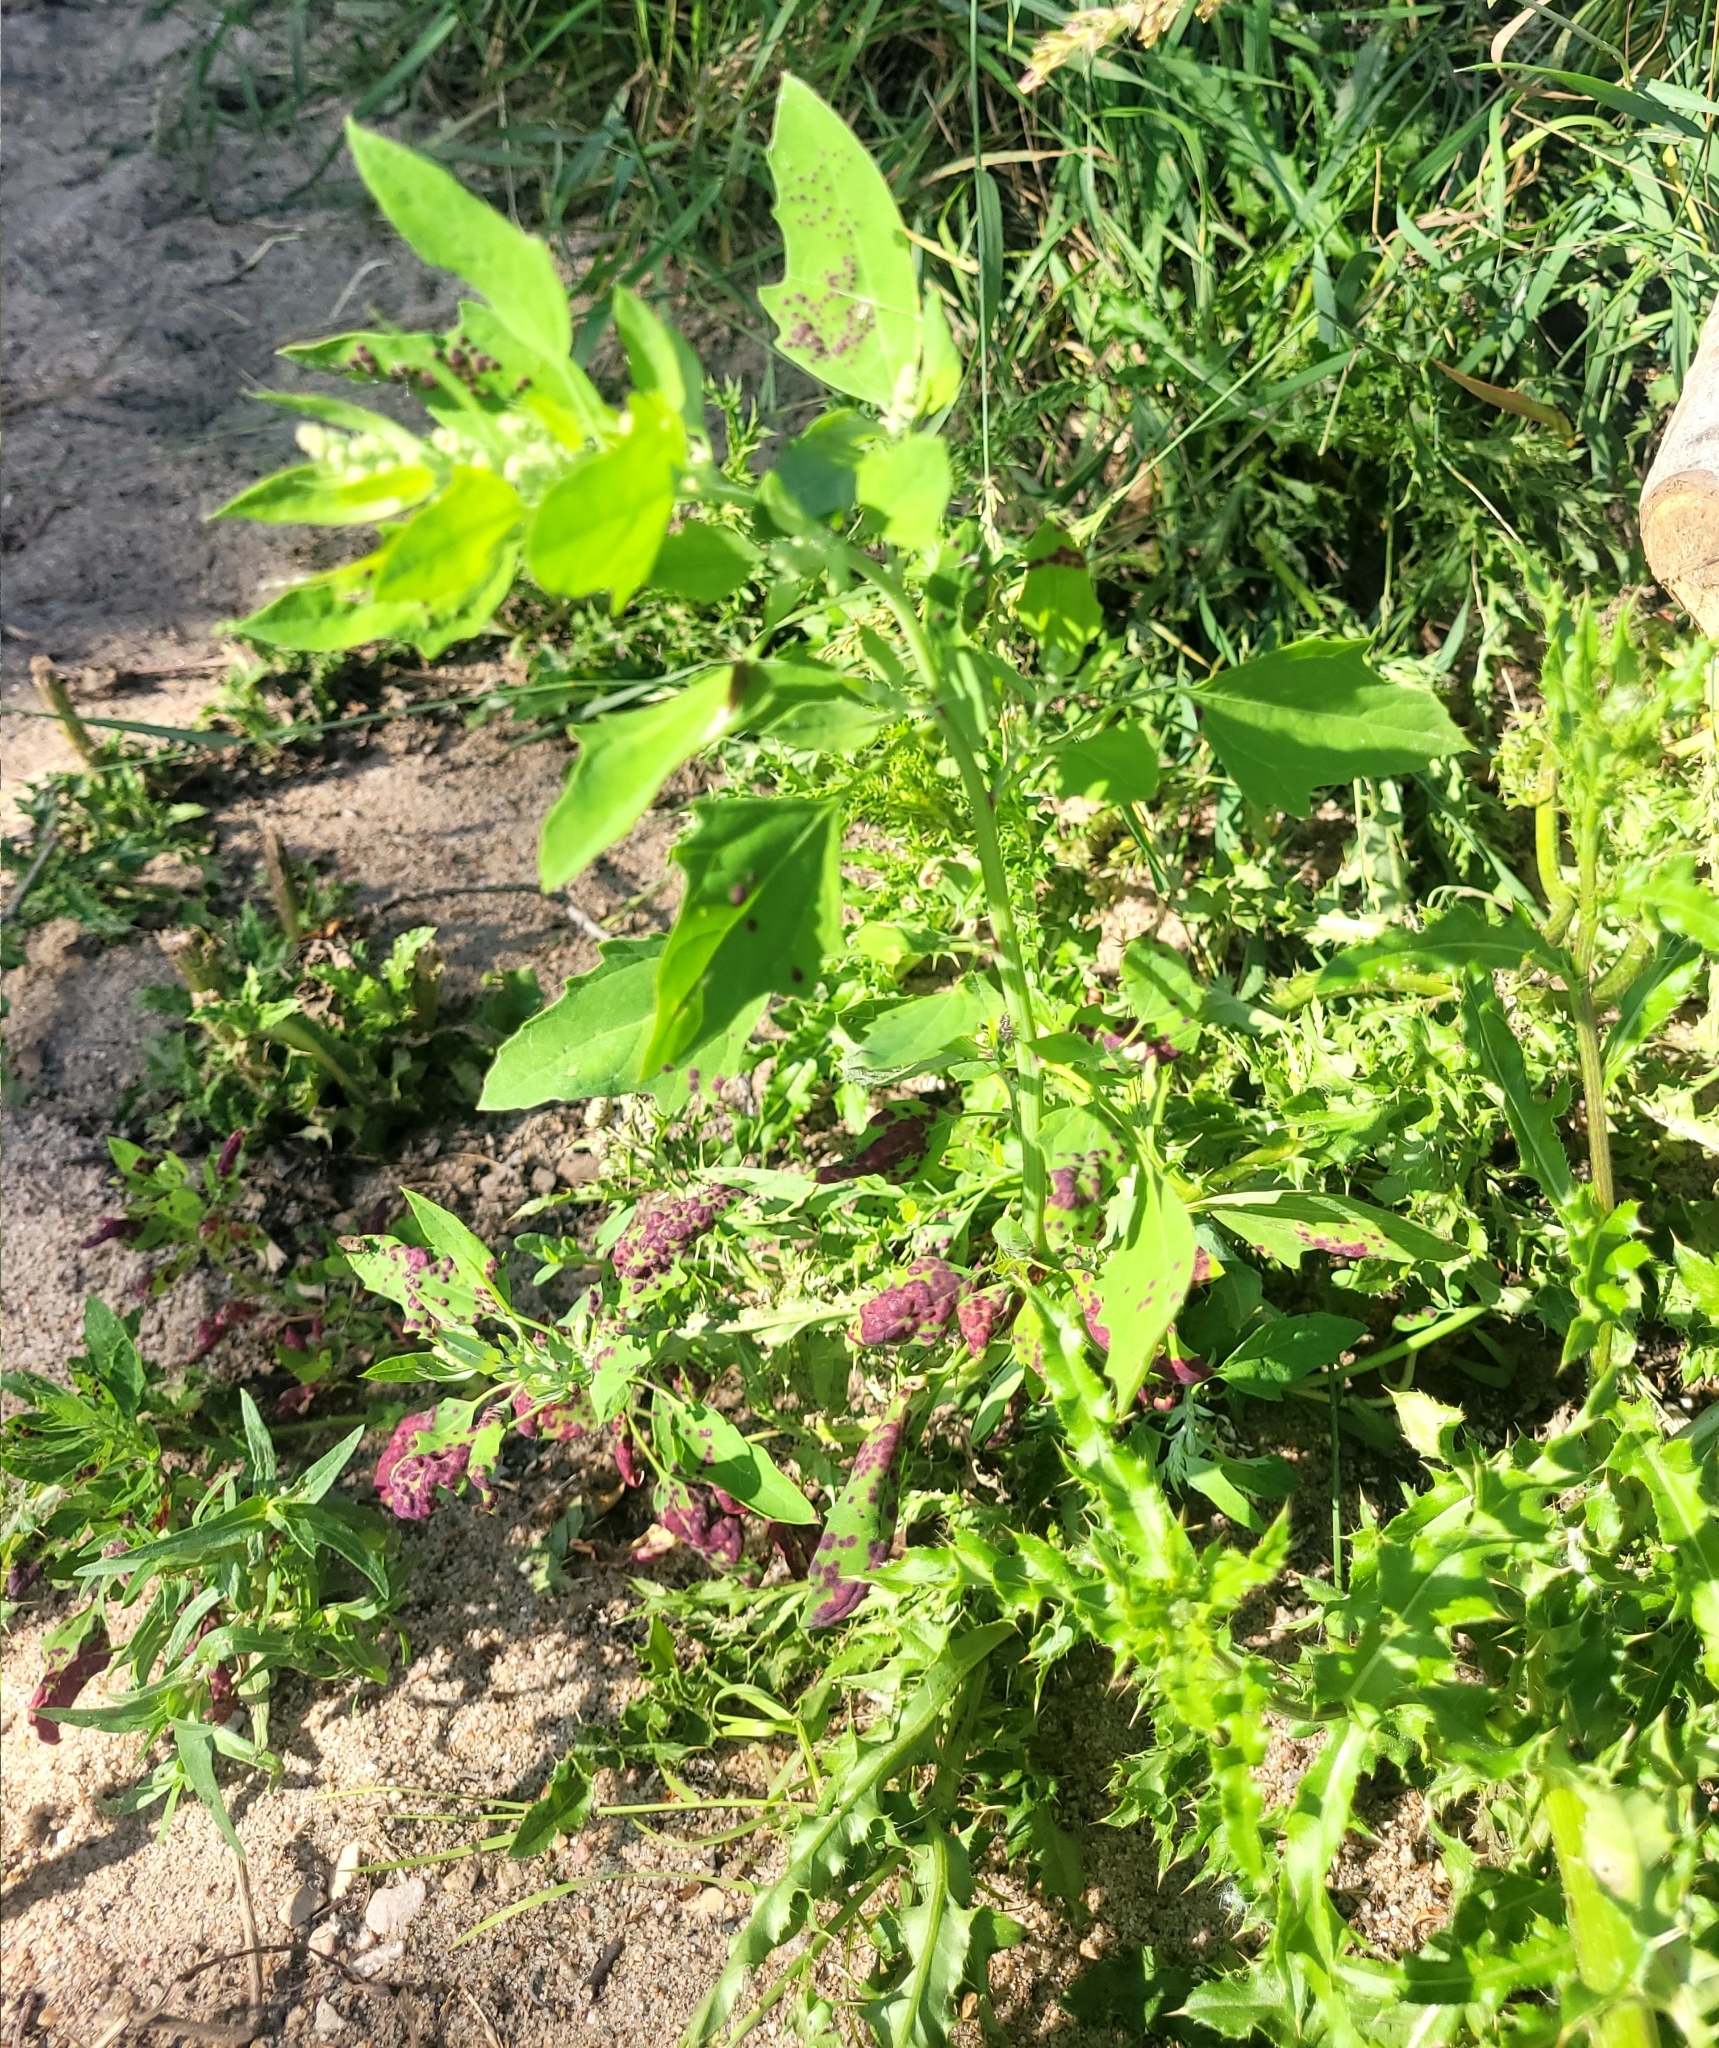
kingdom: Plantae
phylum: Tracheophyta
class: Magnoliopsida
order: Caryophyllales
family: Amaranthaceae
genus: Chenopodium
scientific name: Chenopodium album
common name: Fat-hen
